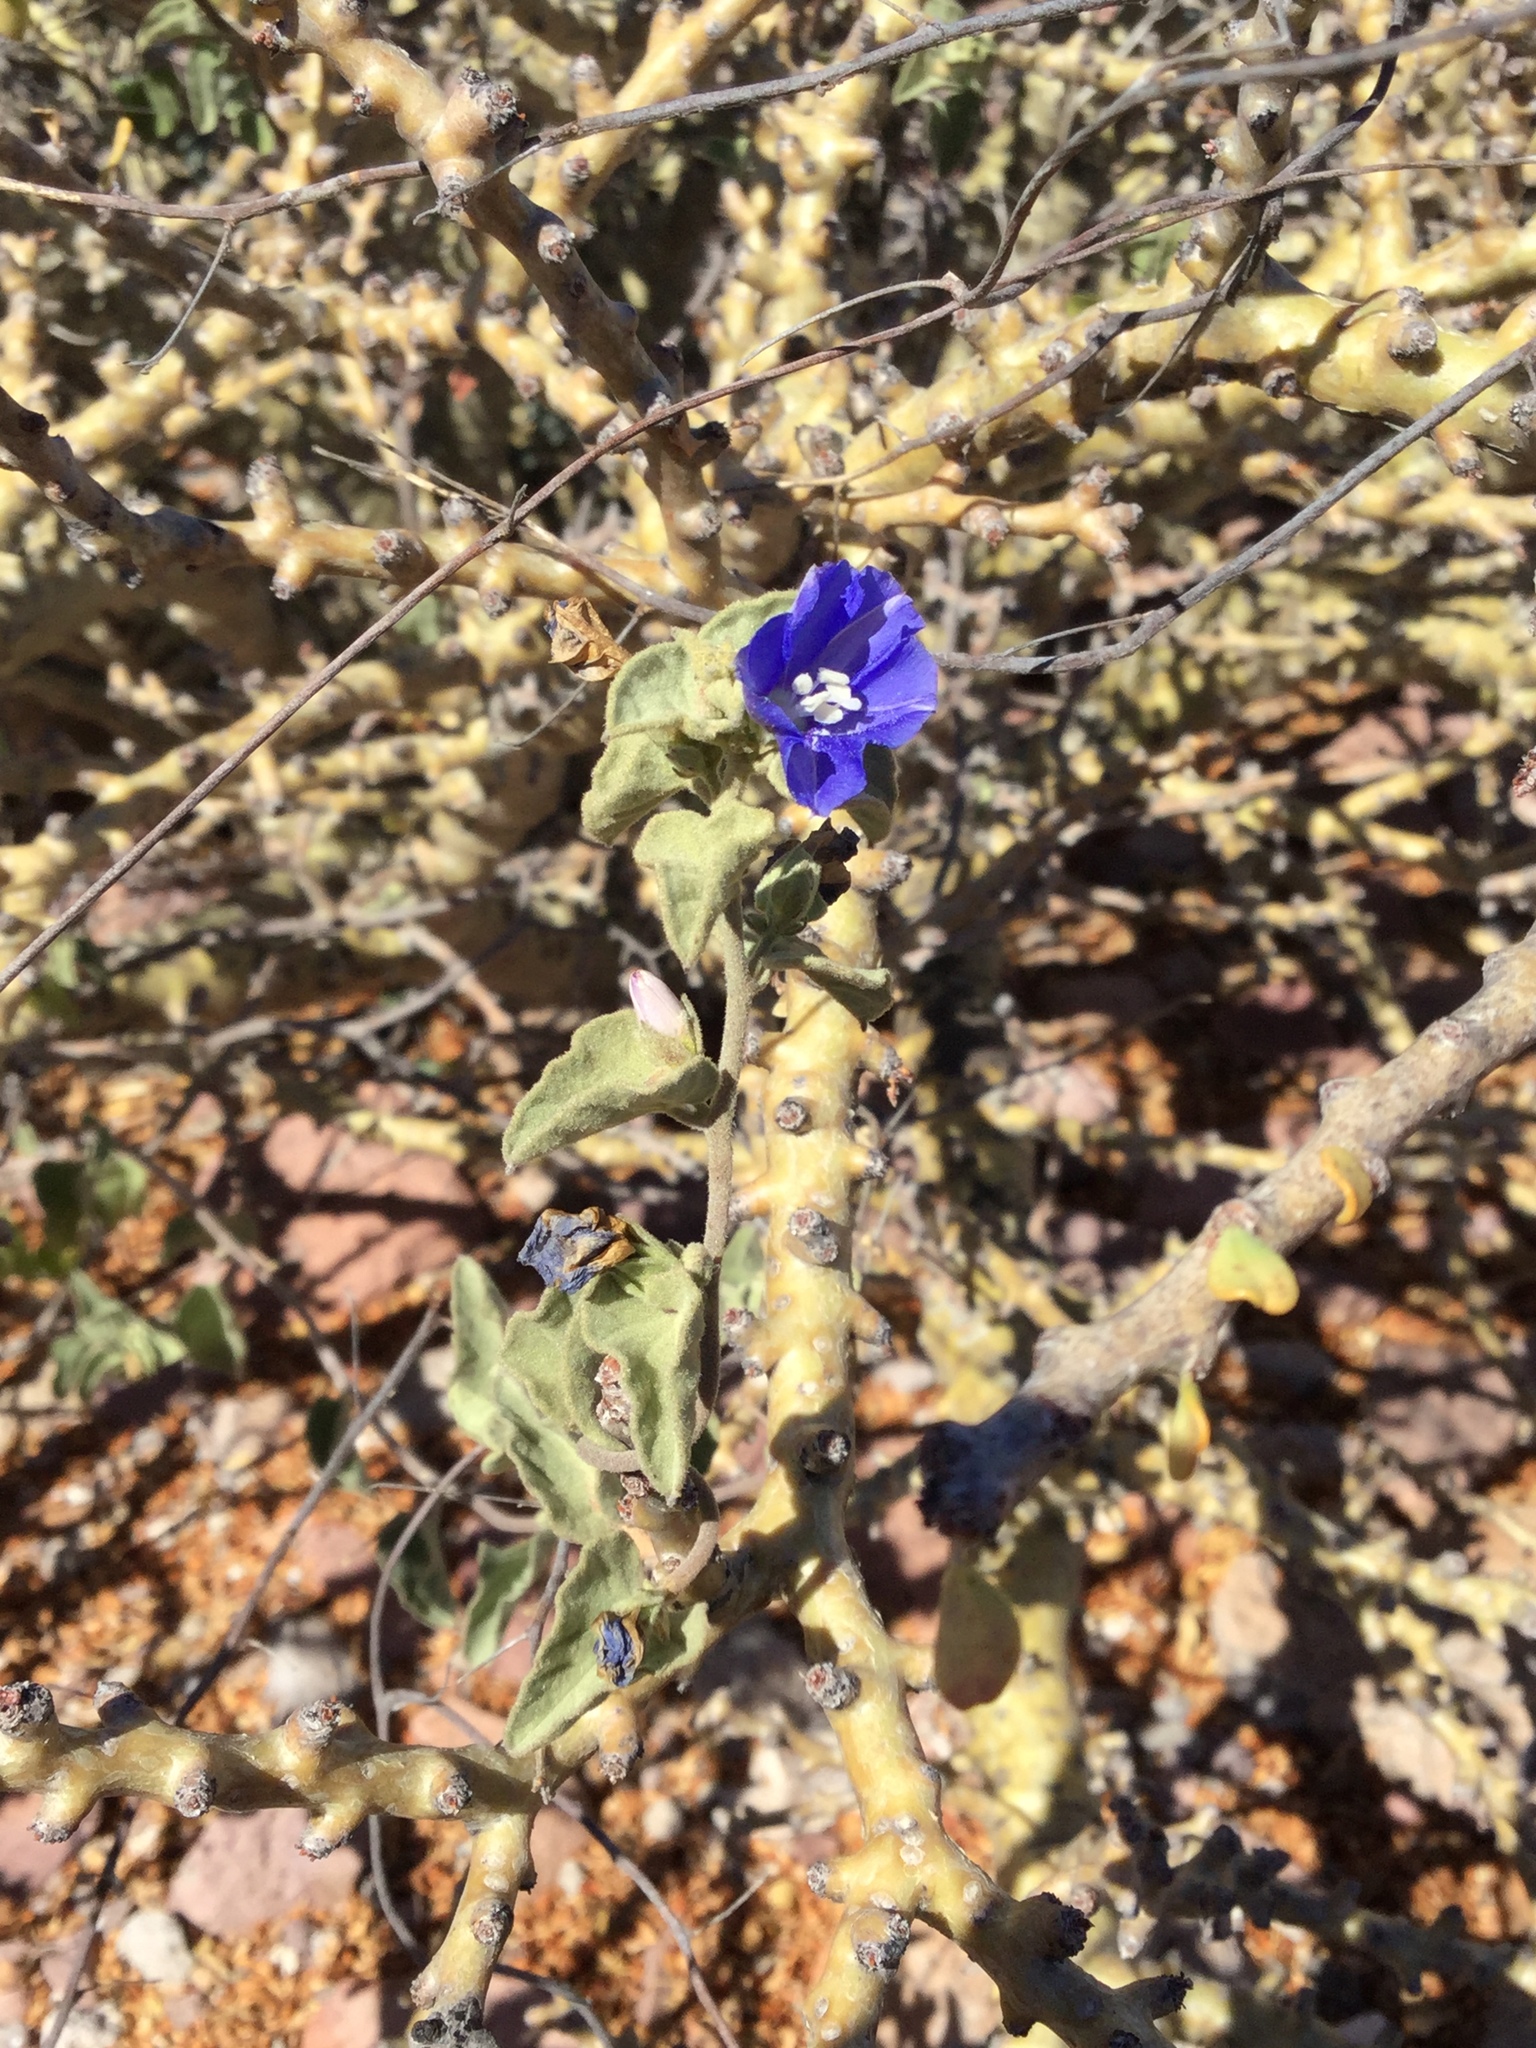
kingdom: Plantae
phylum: Tracheophyta
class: Magnoliopsida
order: Solanales
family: Convolvulaceae
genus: Jacquemontia
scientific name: Jacquemontia abutiloides
